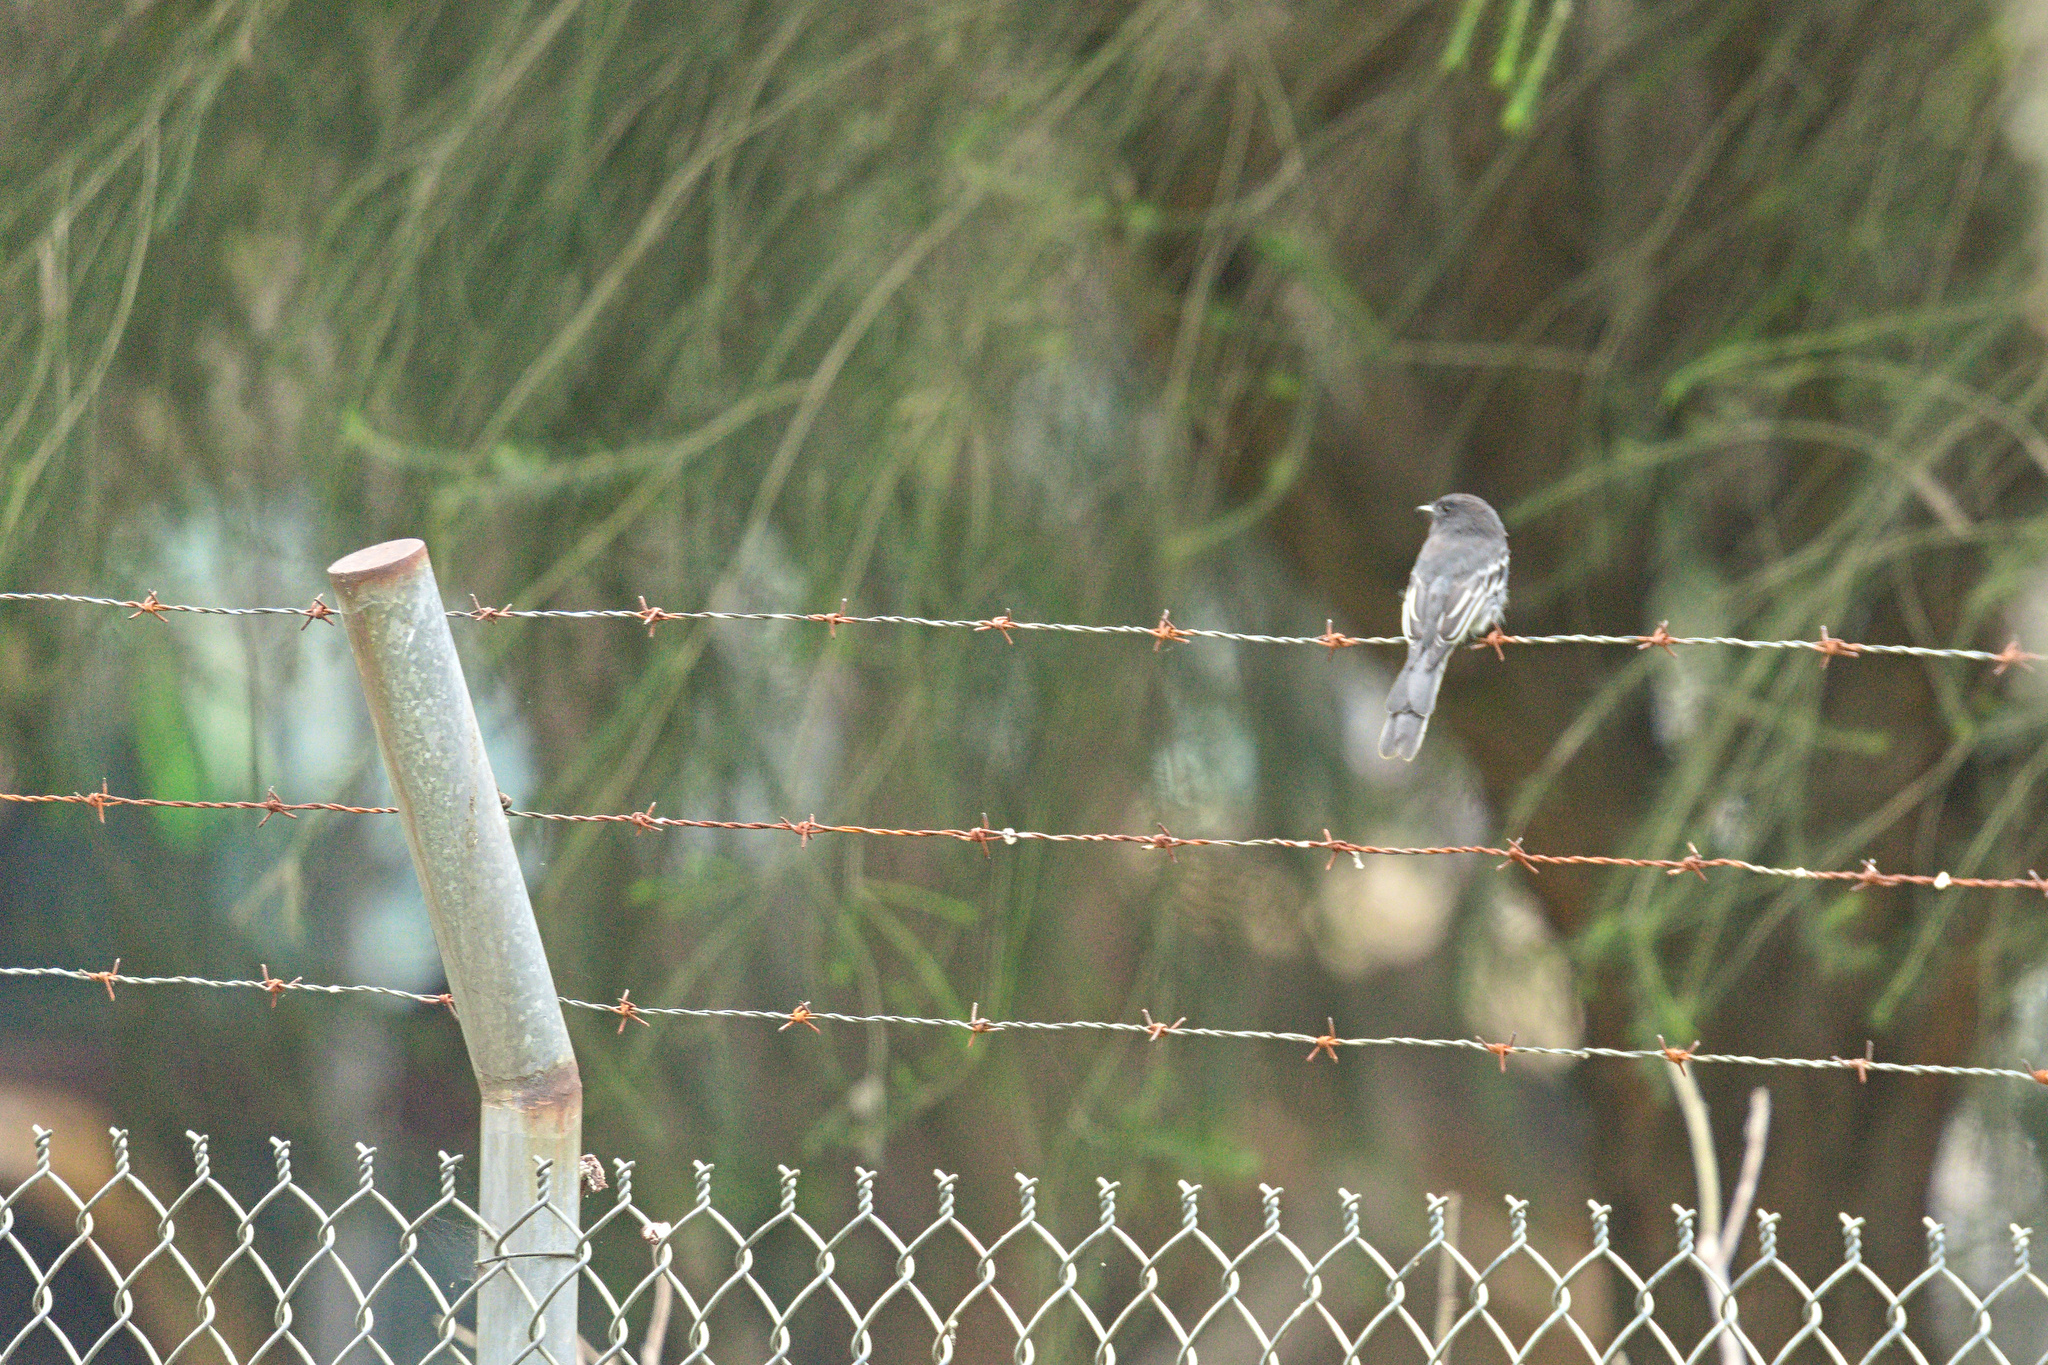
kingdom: Animalia
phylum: Chordata
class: Aves
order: Passeriformes
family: Tyrannidae
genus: Sayornis
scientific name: Sayornis nigricans
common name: Black phoebe
